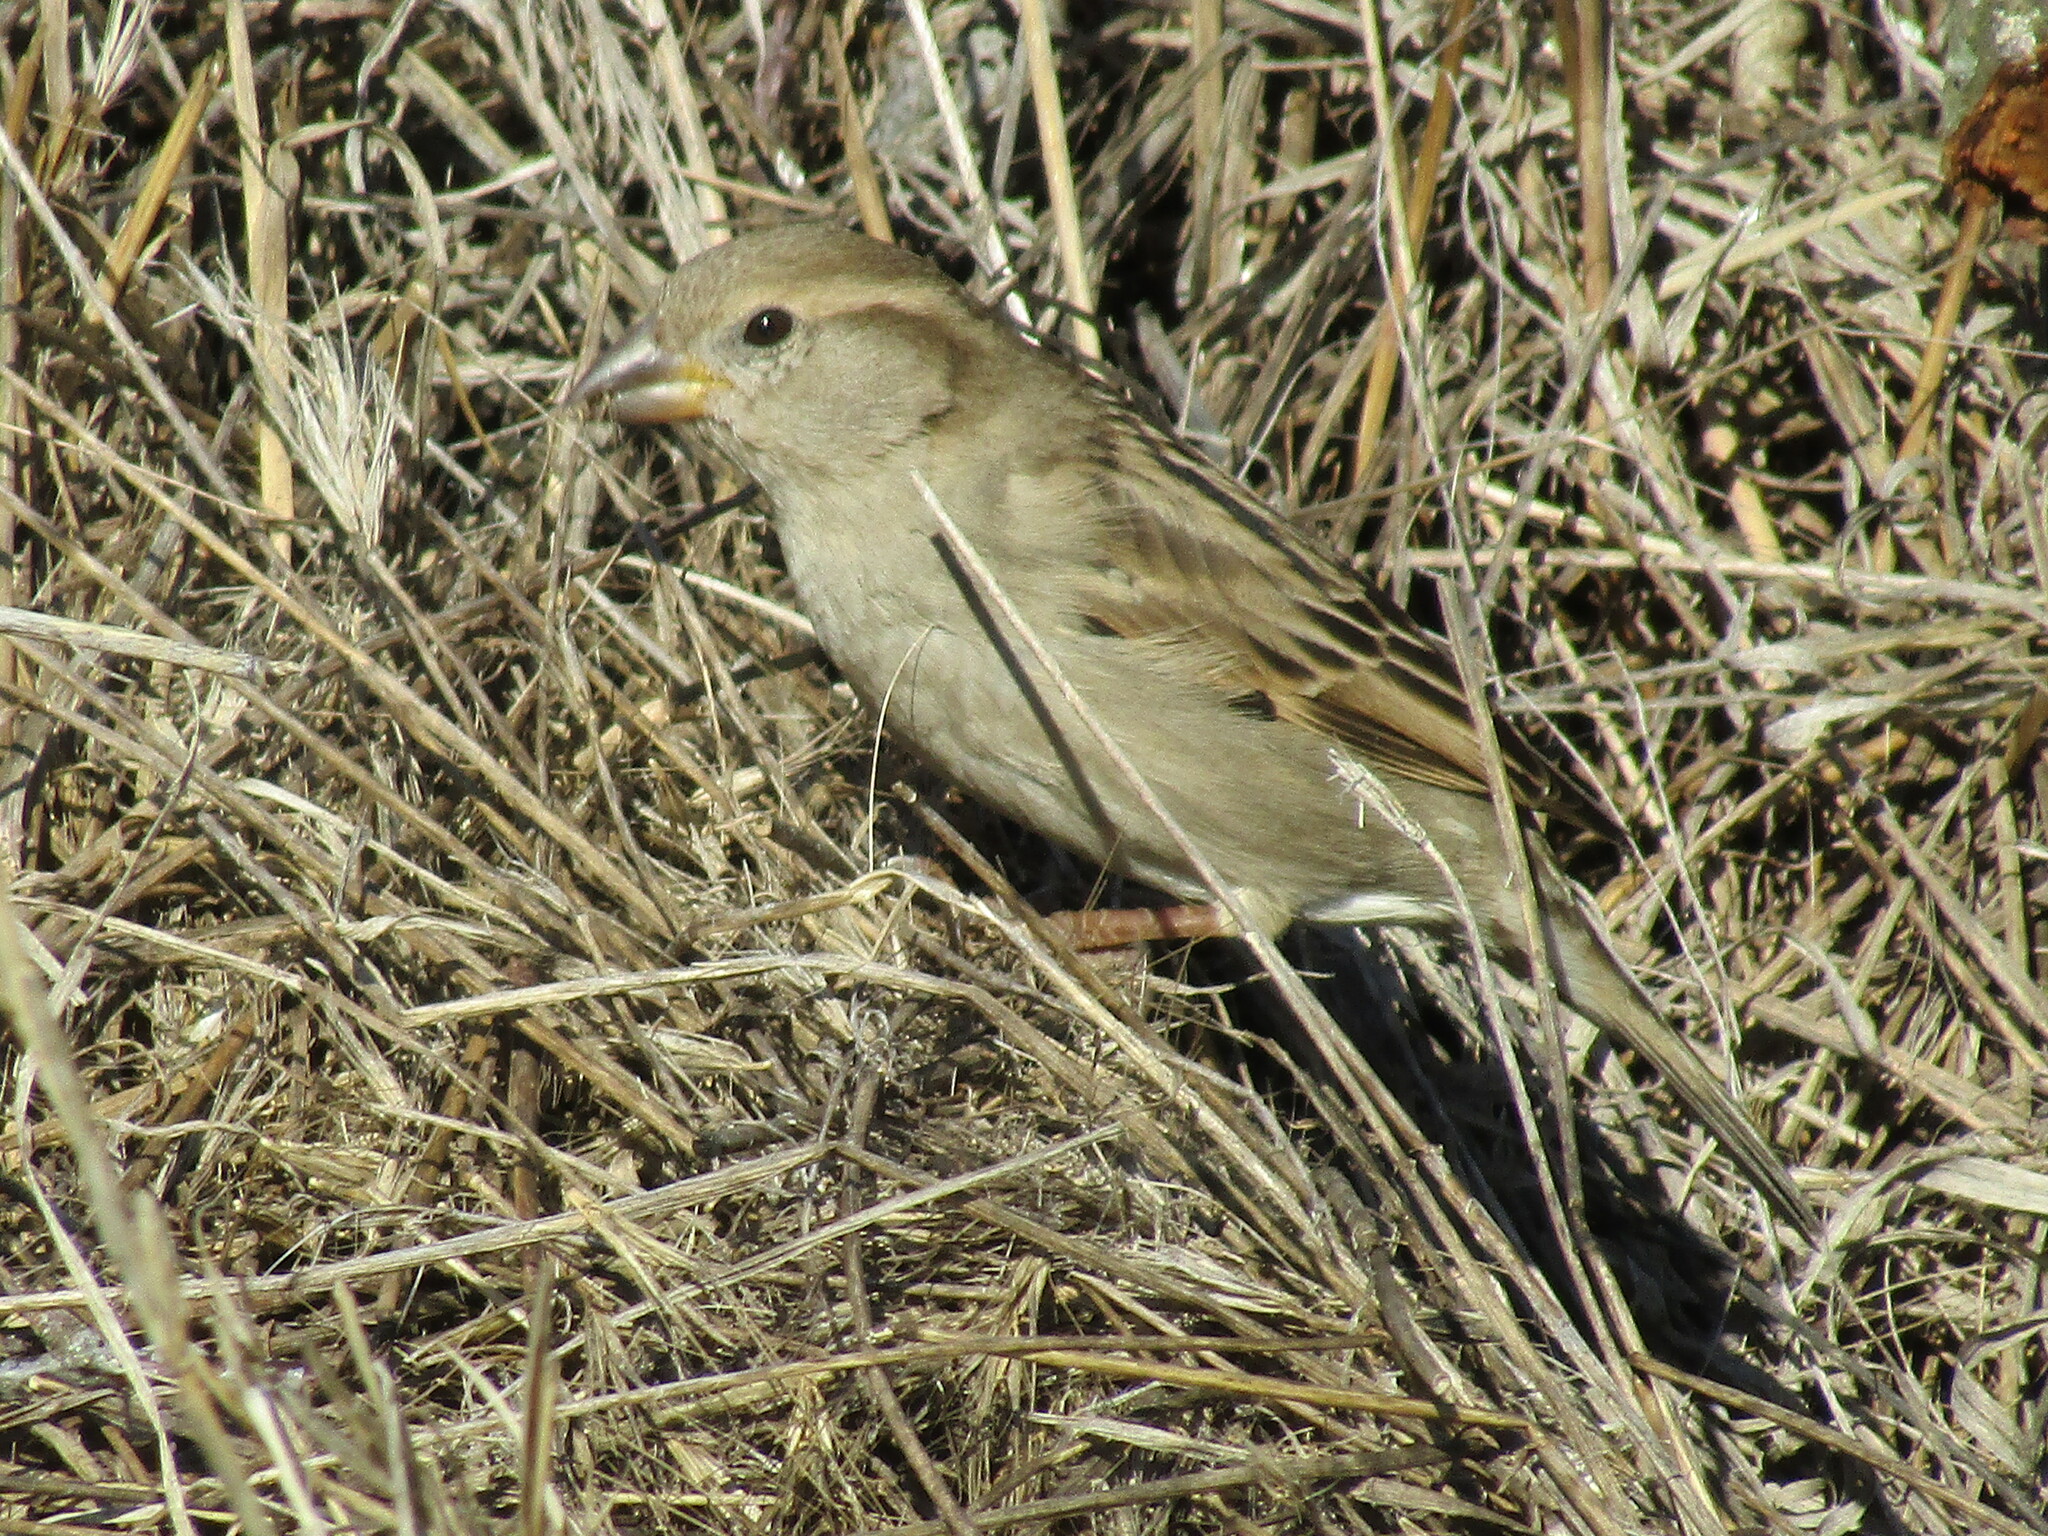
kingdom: Animalia
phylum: Chordata
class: Aves
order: Passeriformes
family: Passeridae
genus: Passer
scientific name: Passer domesticus
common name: House sparrow
